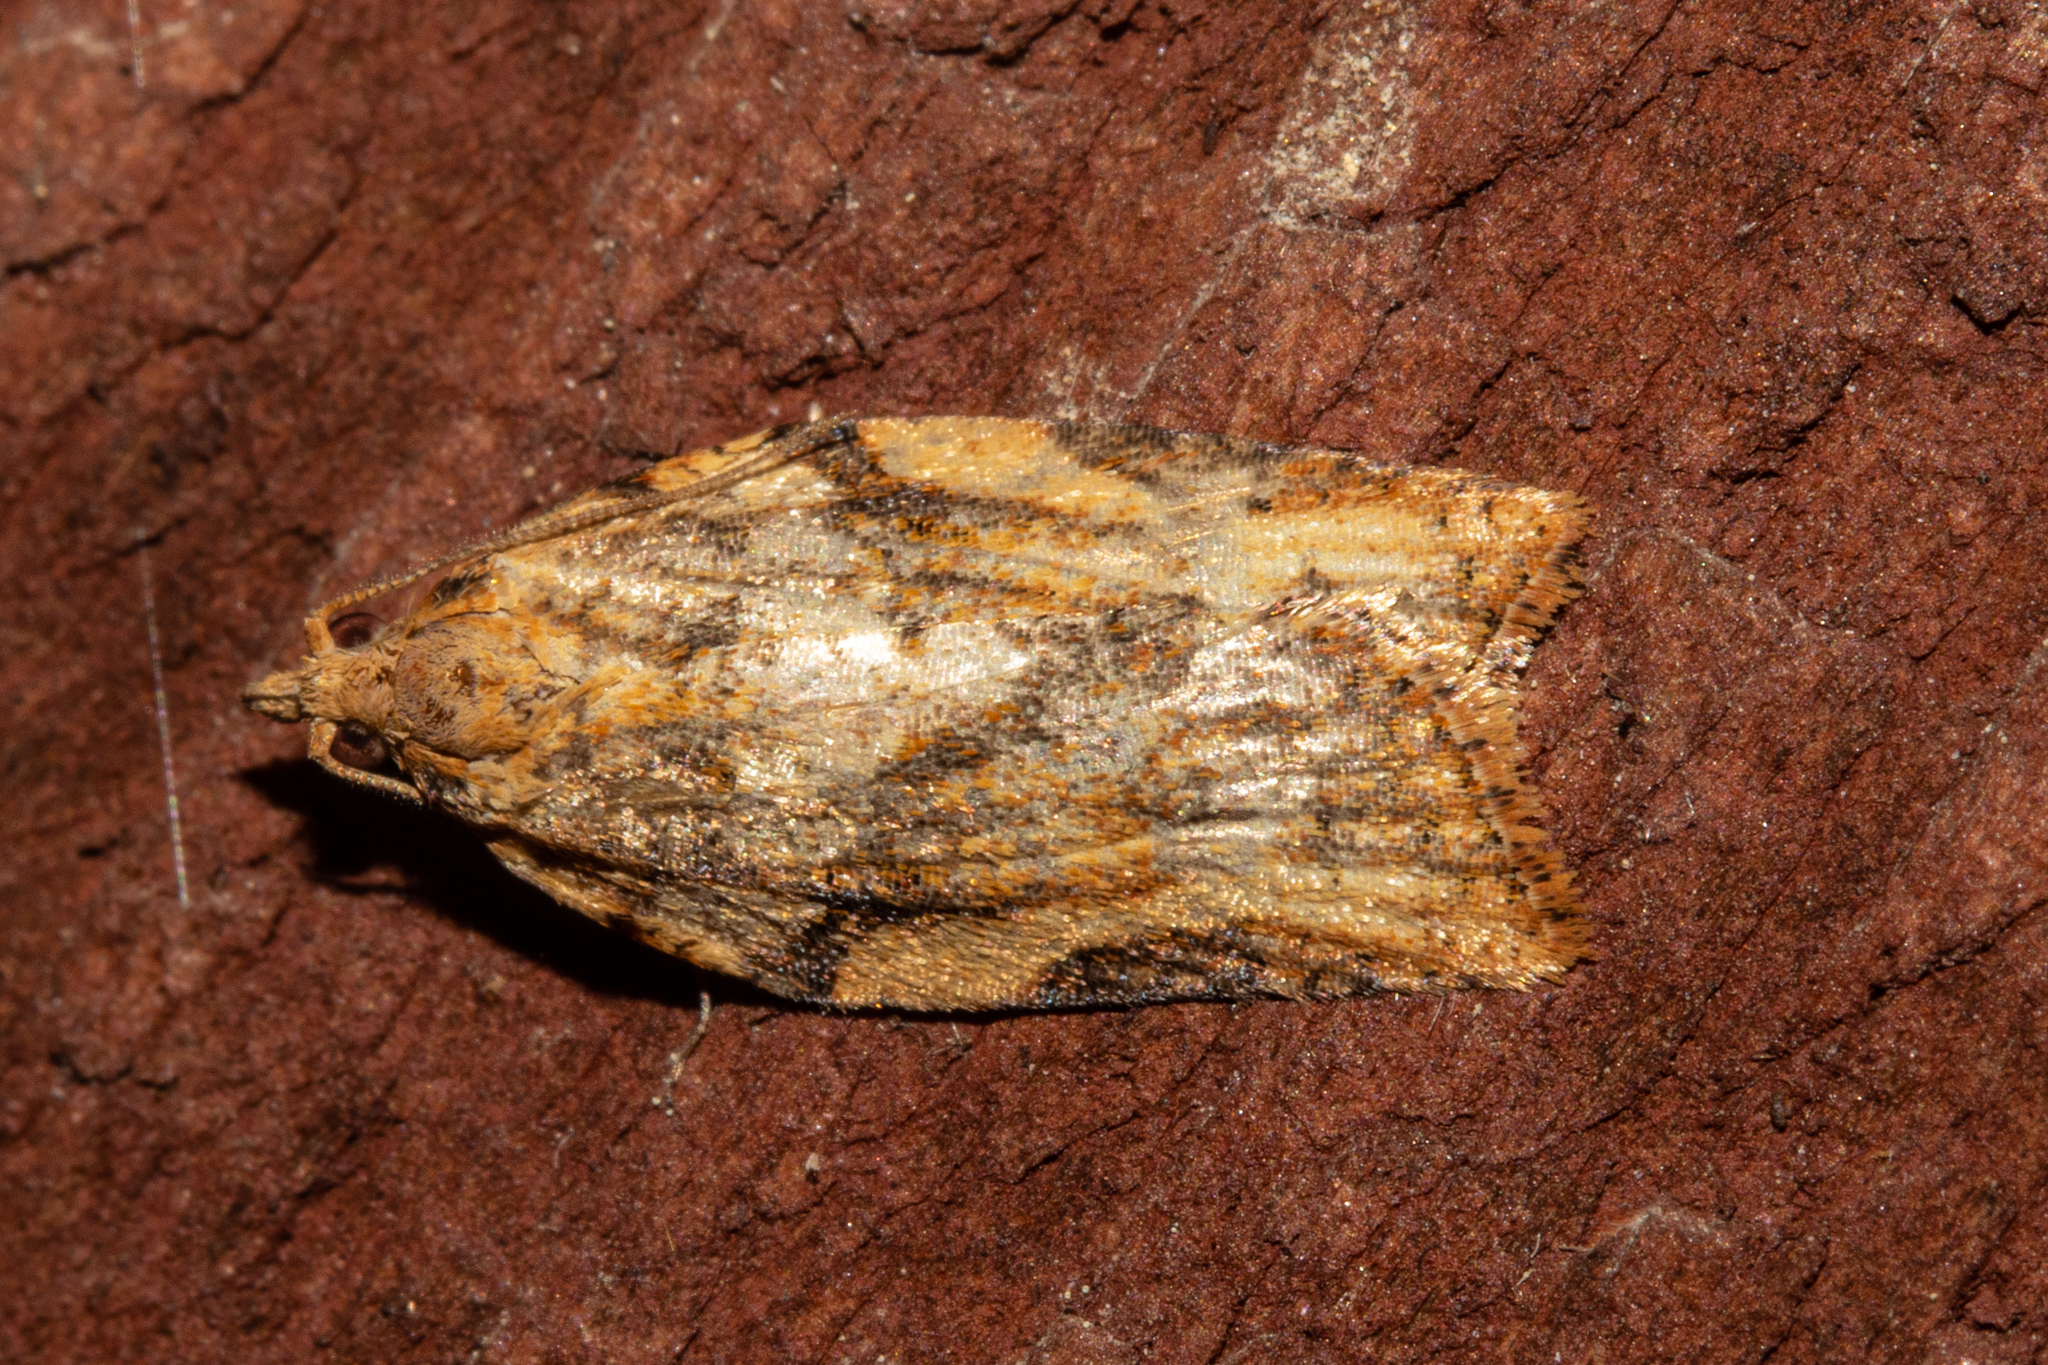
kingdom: Animalia
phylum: Arthropoda
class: Insecta
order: Lepidoptera
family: Tortricidae
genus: Epiphyas
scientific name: Epiphyas postvittana
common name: Light brown apple moth
